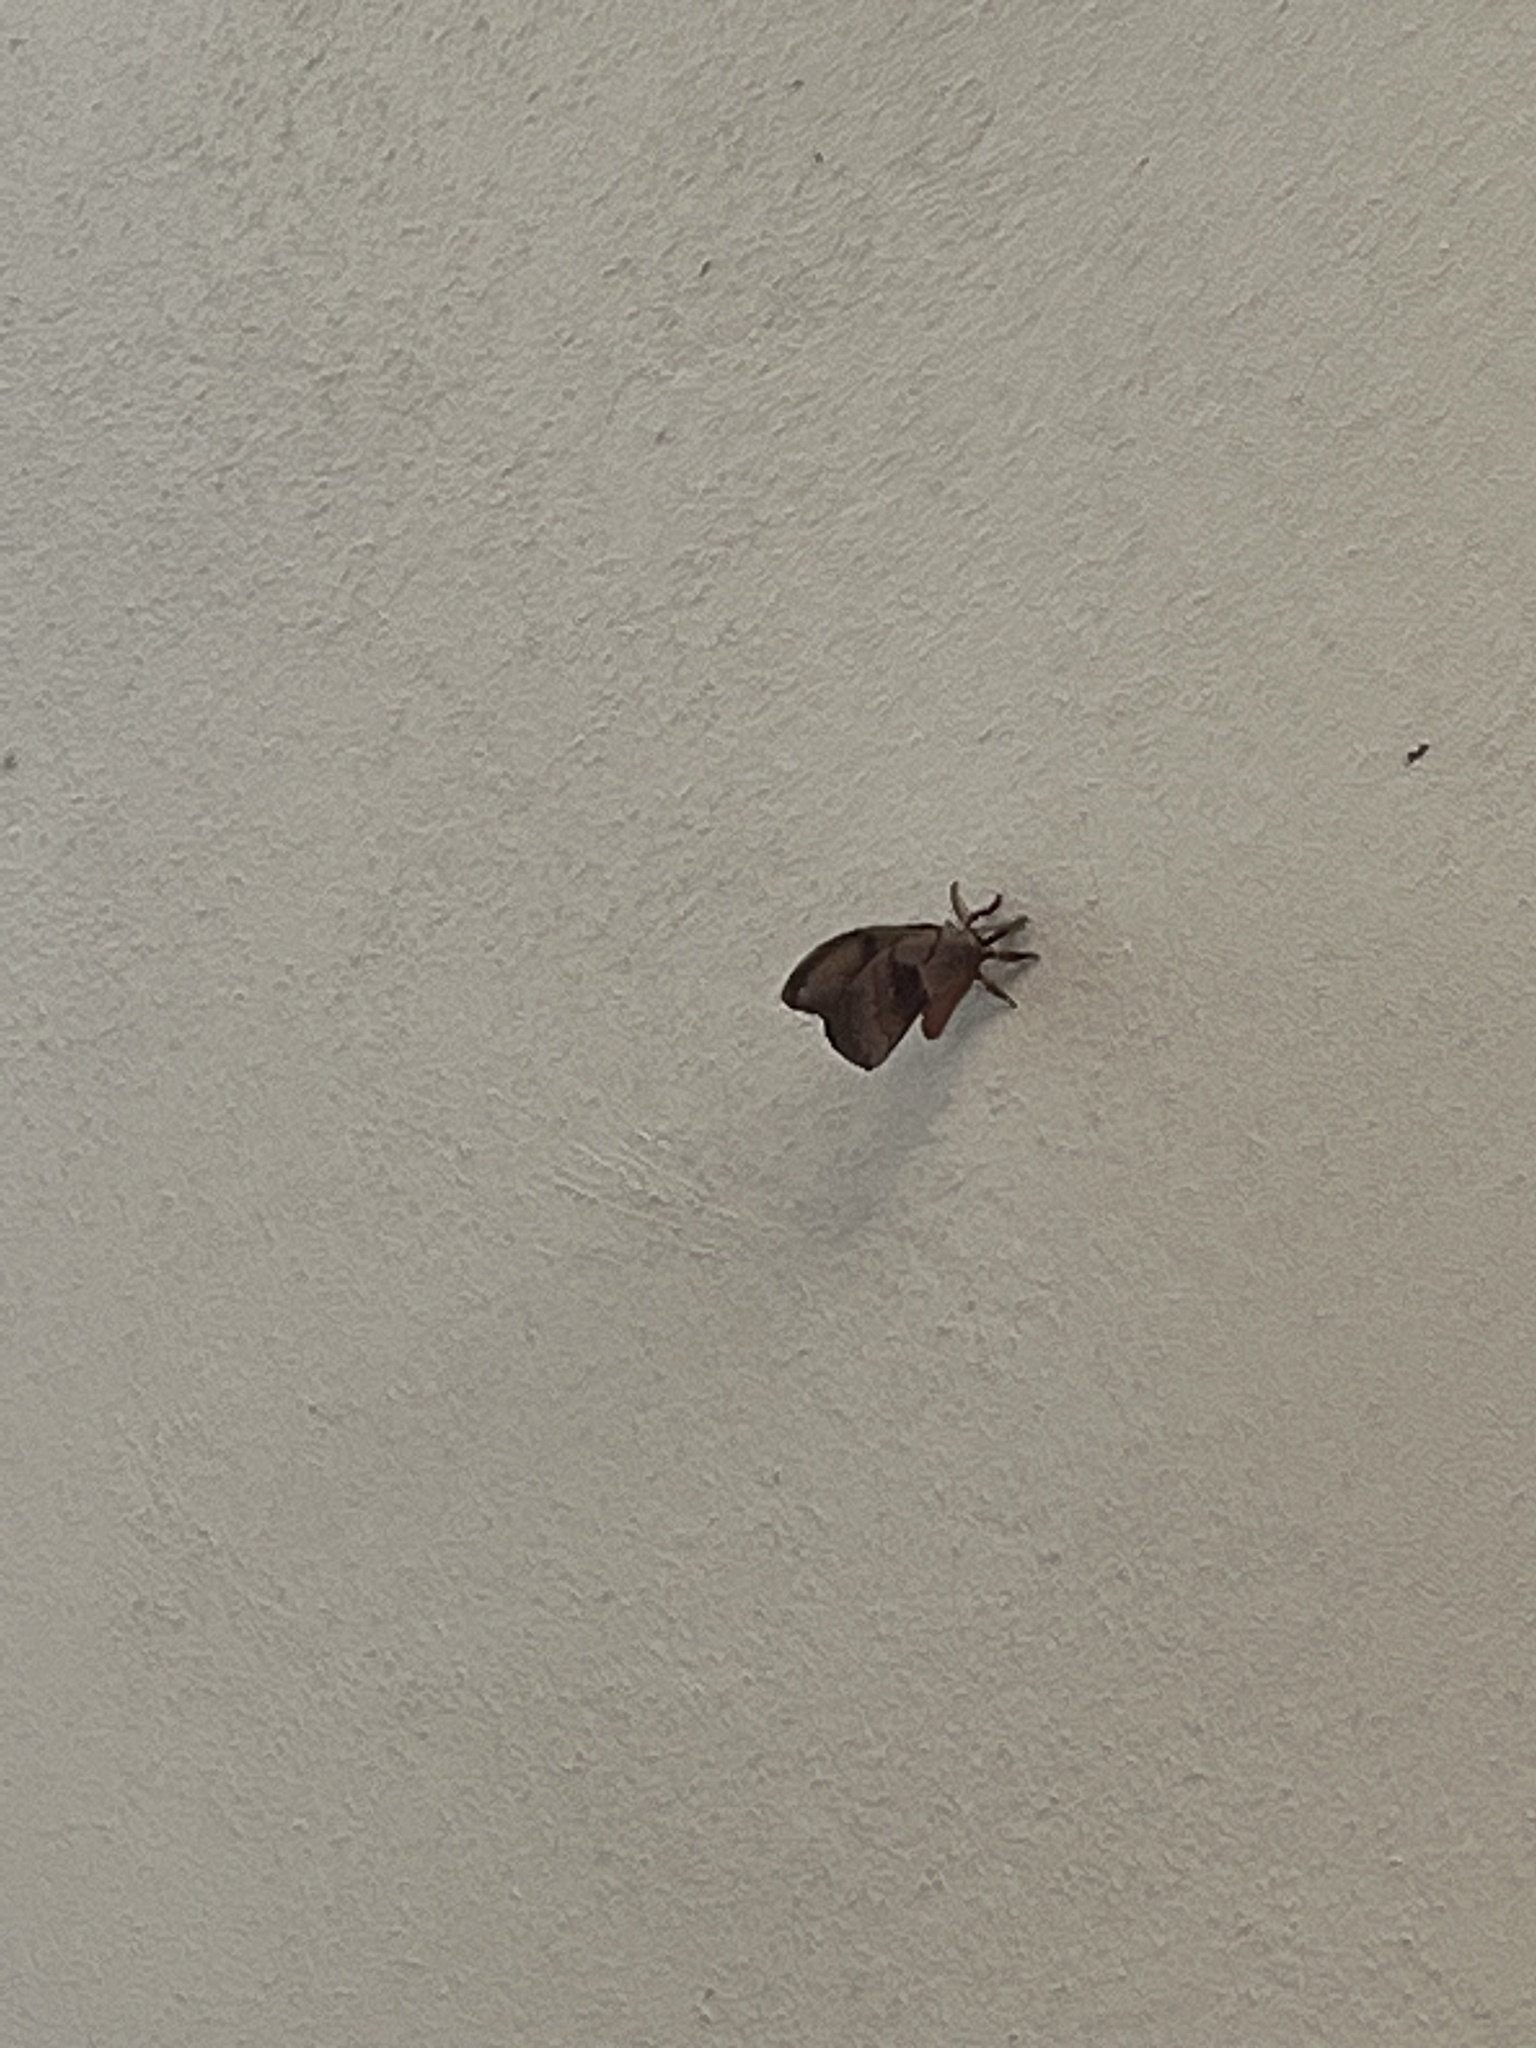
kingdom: Animalia
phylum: Arthropoda
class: Insecta
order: Lepidoptera
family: Saturniidae
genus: Antheraea
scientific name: Antheraea polyphemus
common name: Polyphemus moth
